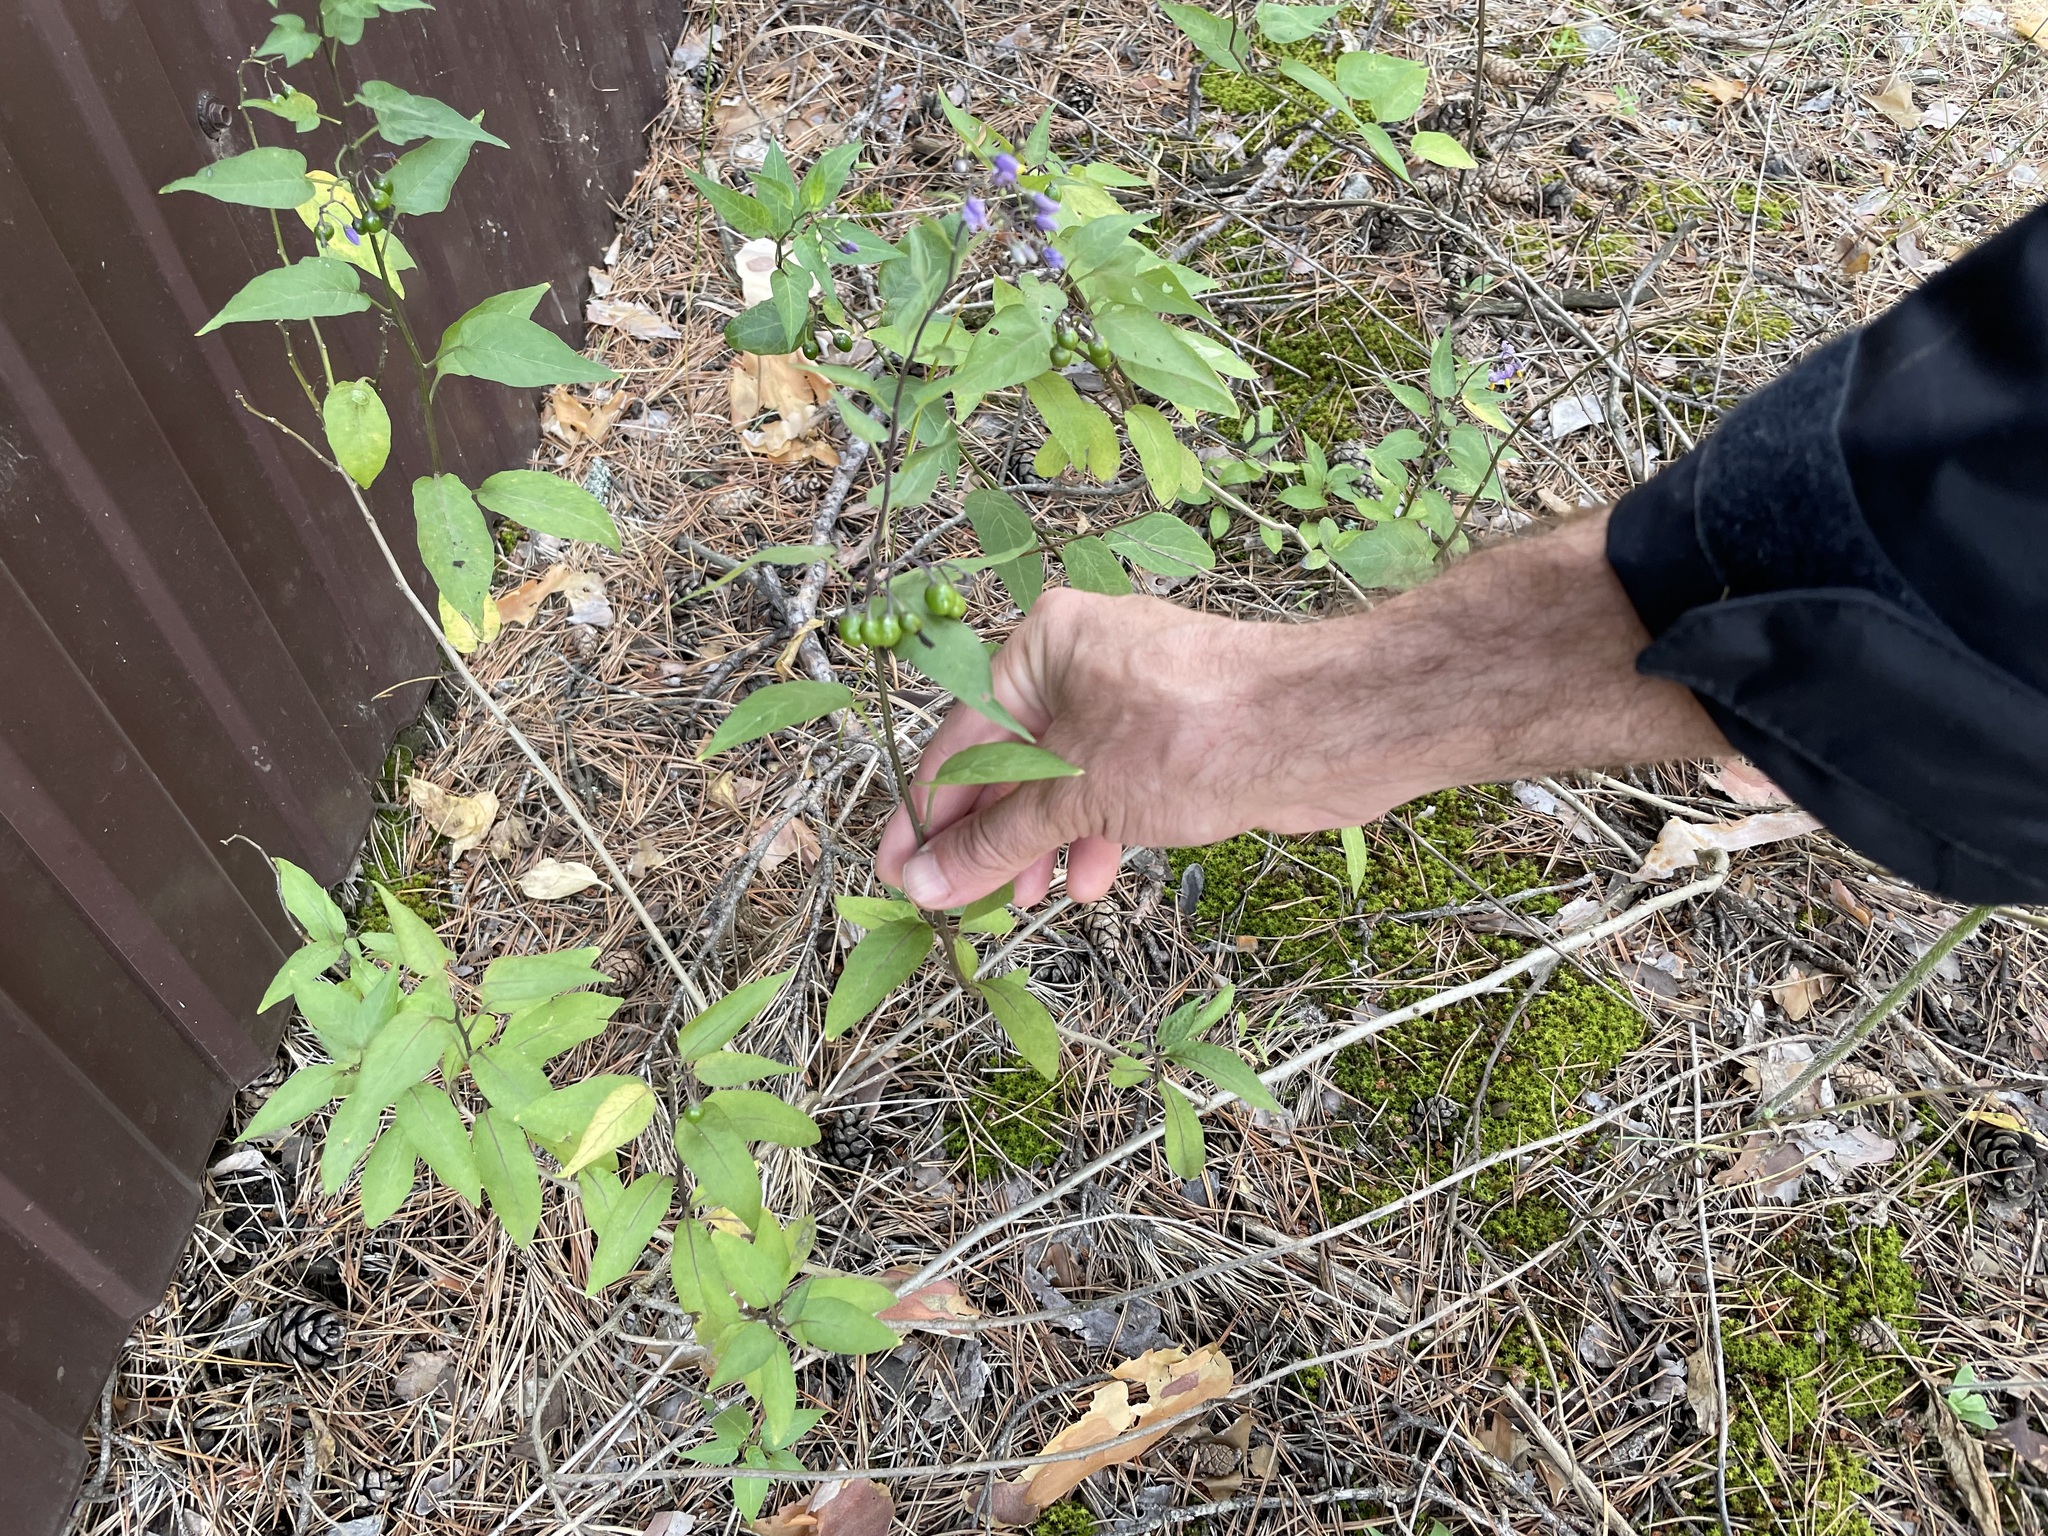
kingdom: Plantae
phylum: Tracheophyta
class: Magnoliopsida
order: Solanales
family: Solanaceae
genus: Solanum
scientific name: Solanum dulcamara
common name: Climbing nightshade
